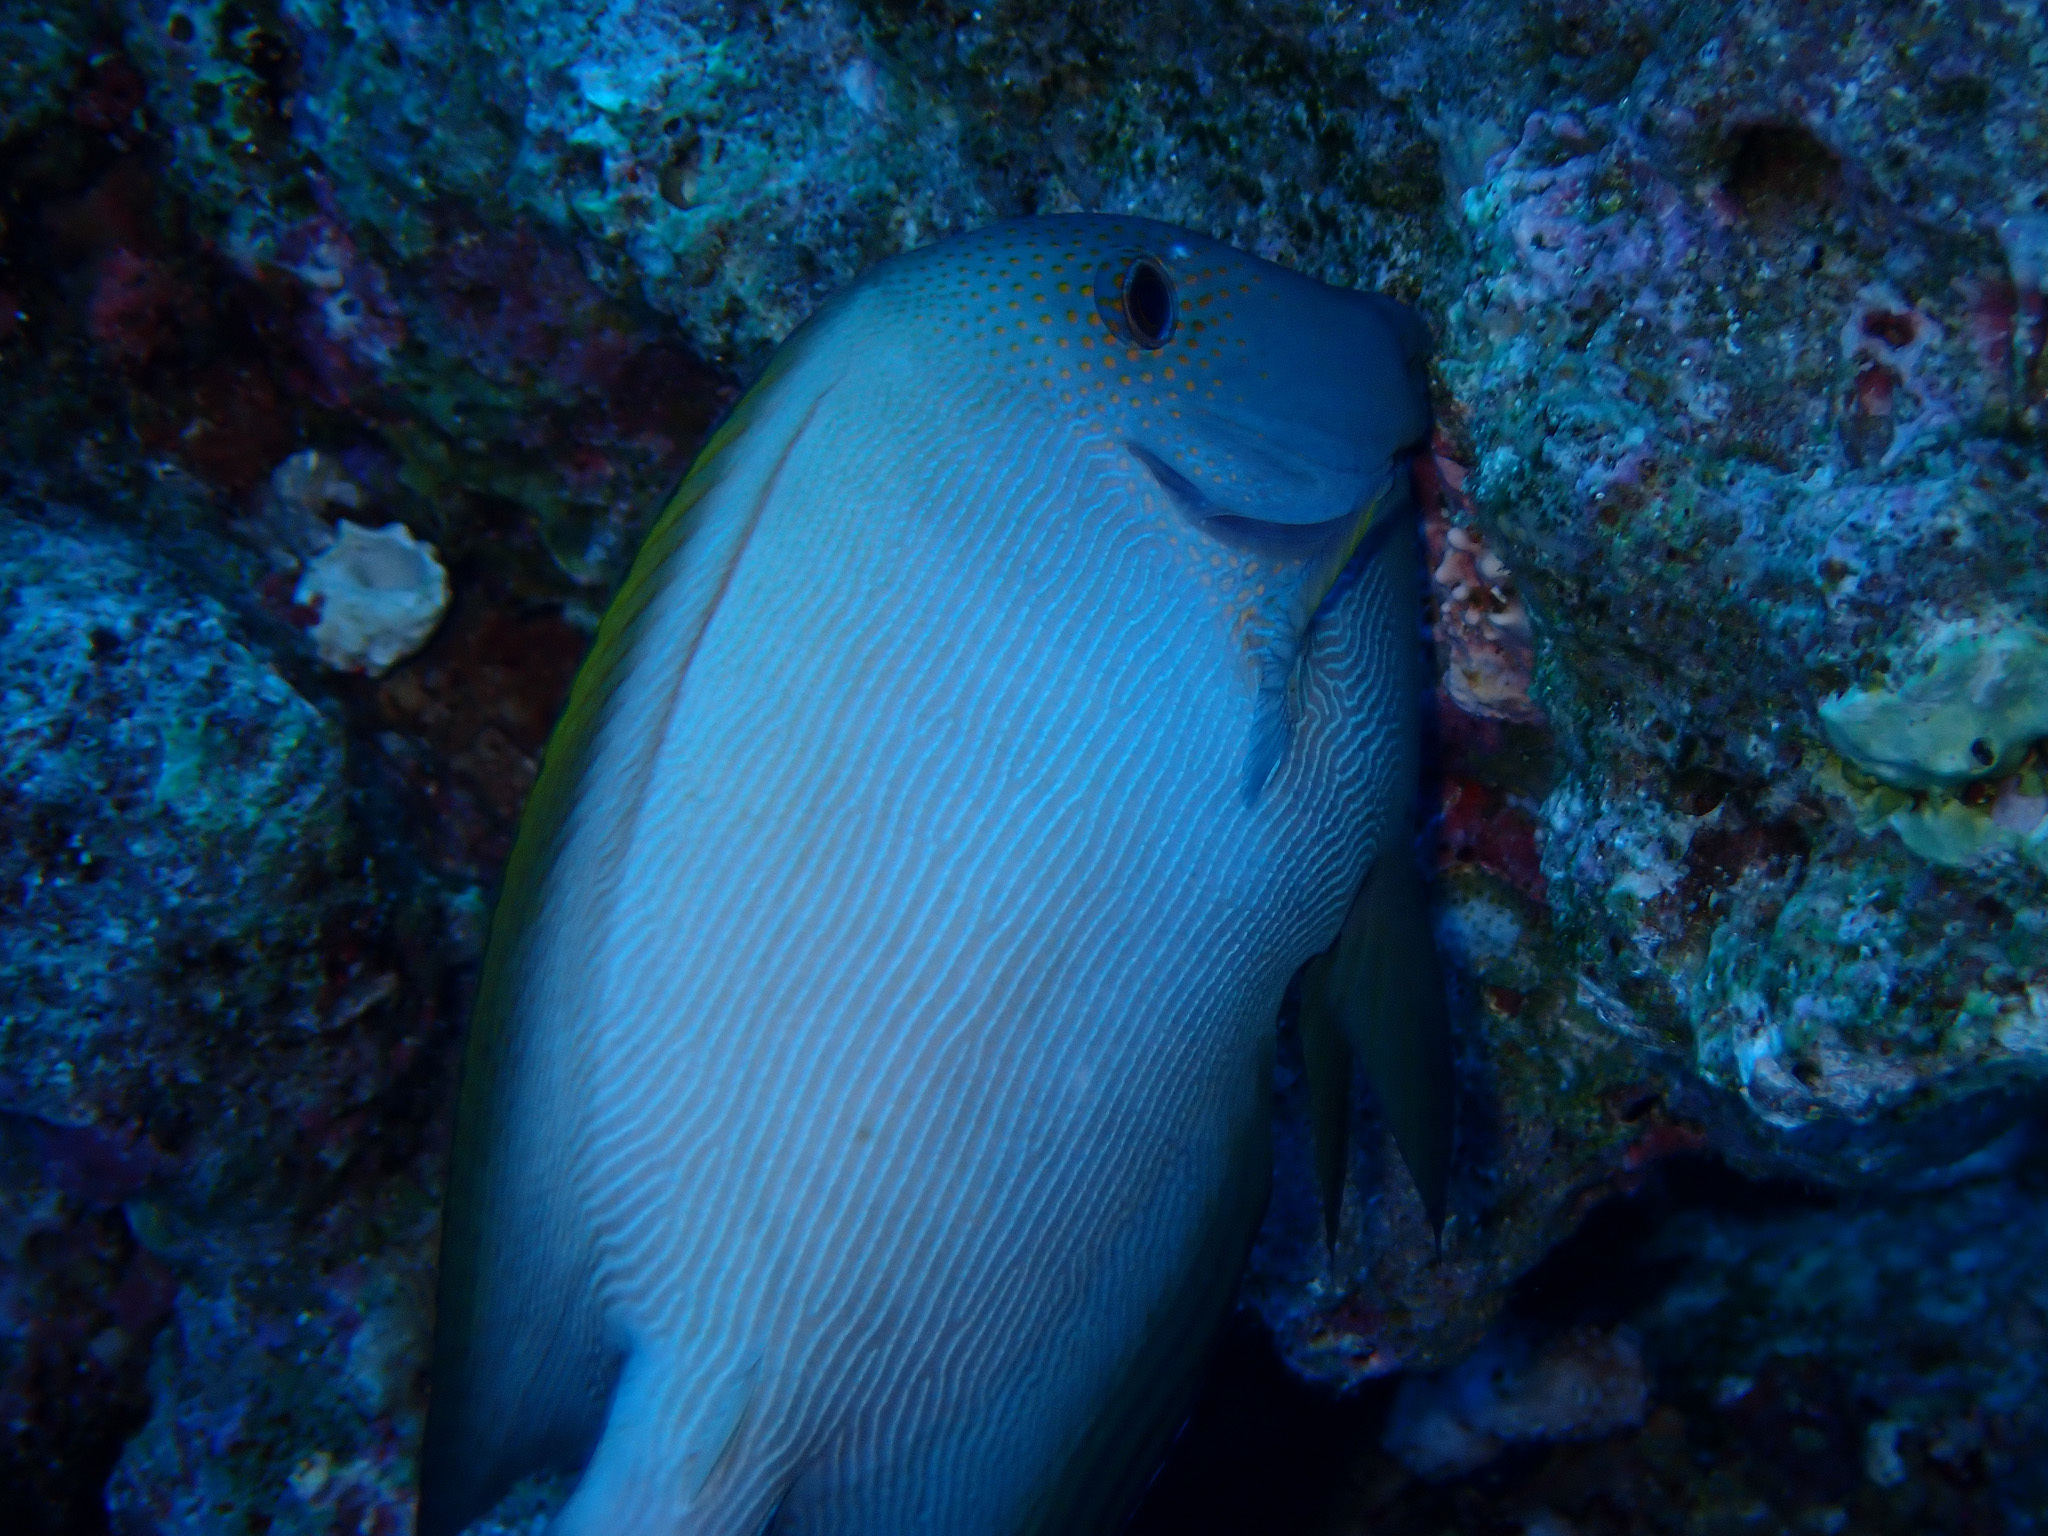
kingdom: Animalia
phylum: Chordata
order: Perciformes
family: Acanthuridae
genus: Ctenochaetus
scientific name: Ctenochaetus striatus
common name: Bristle-toothed surgeonfish
